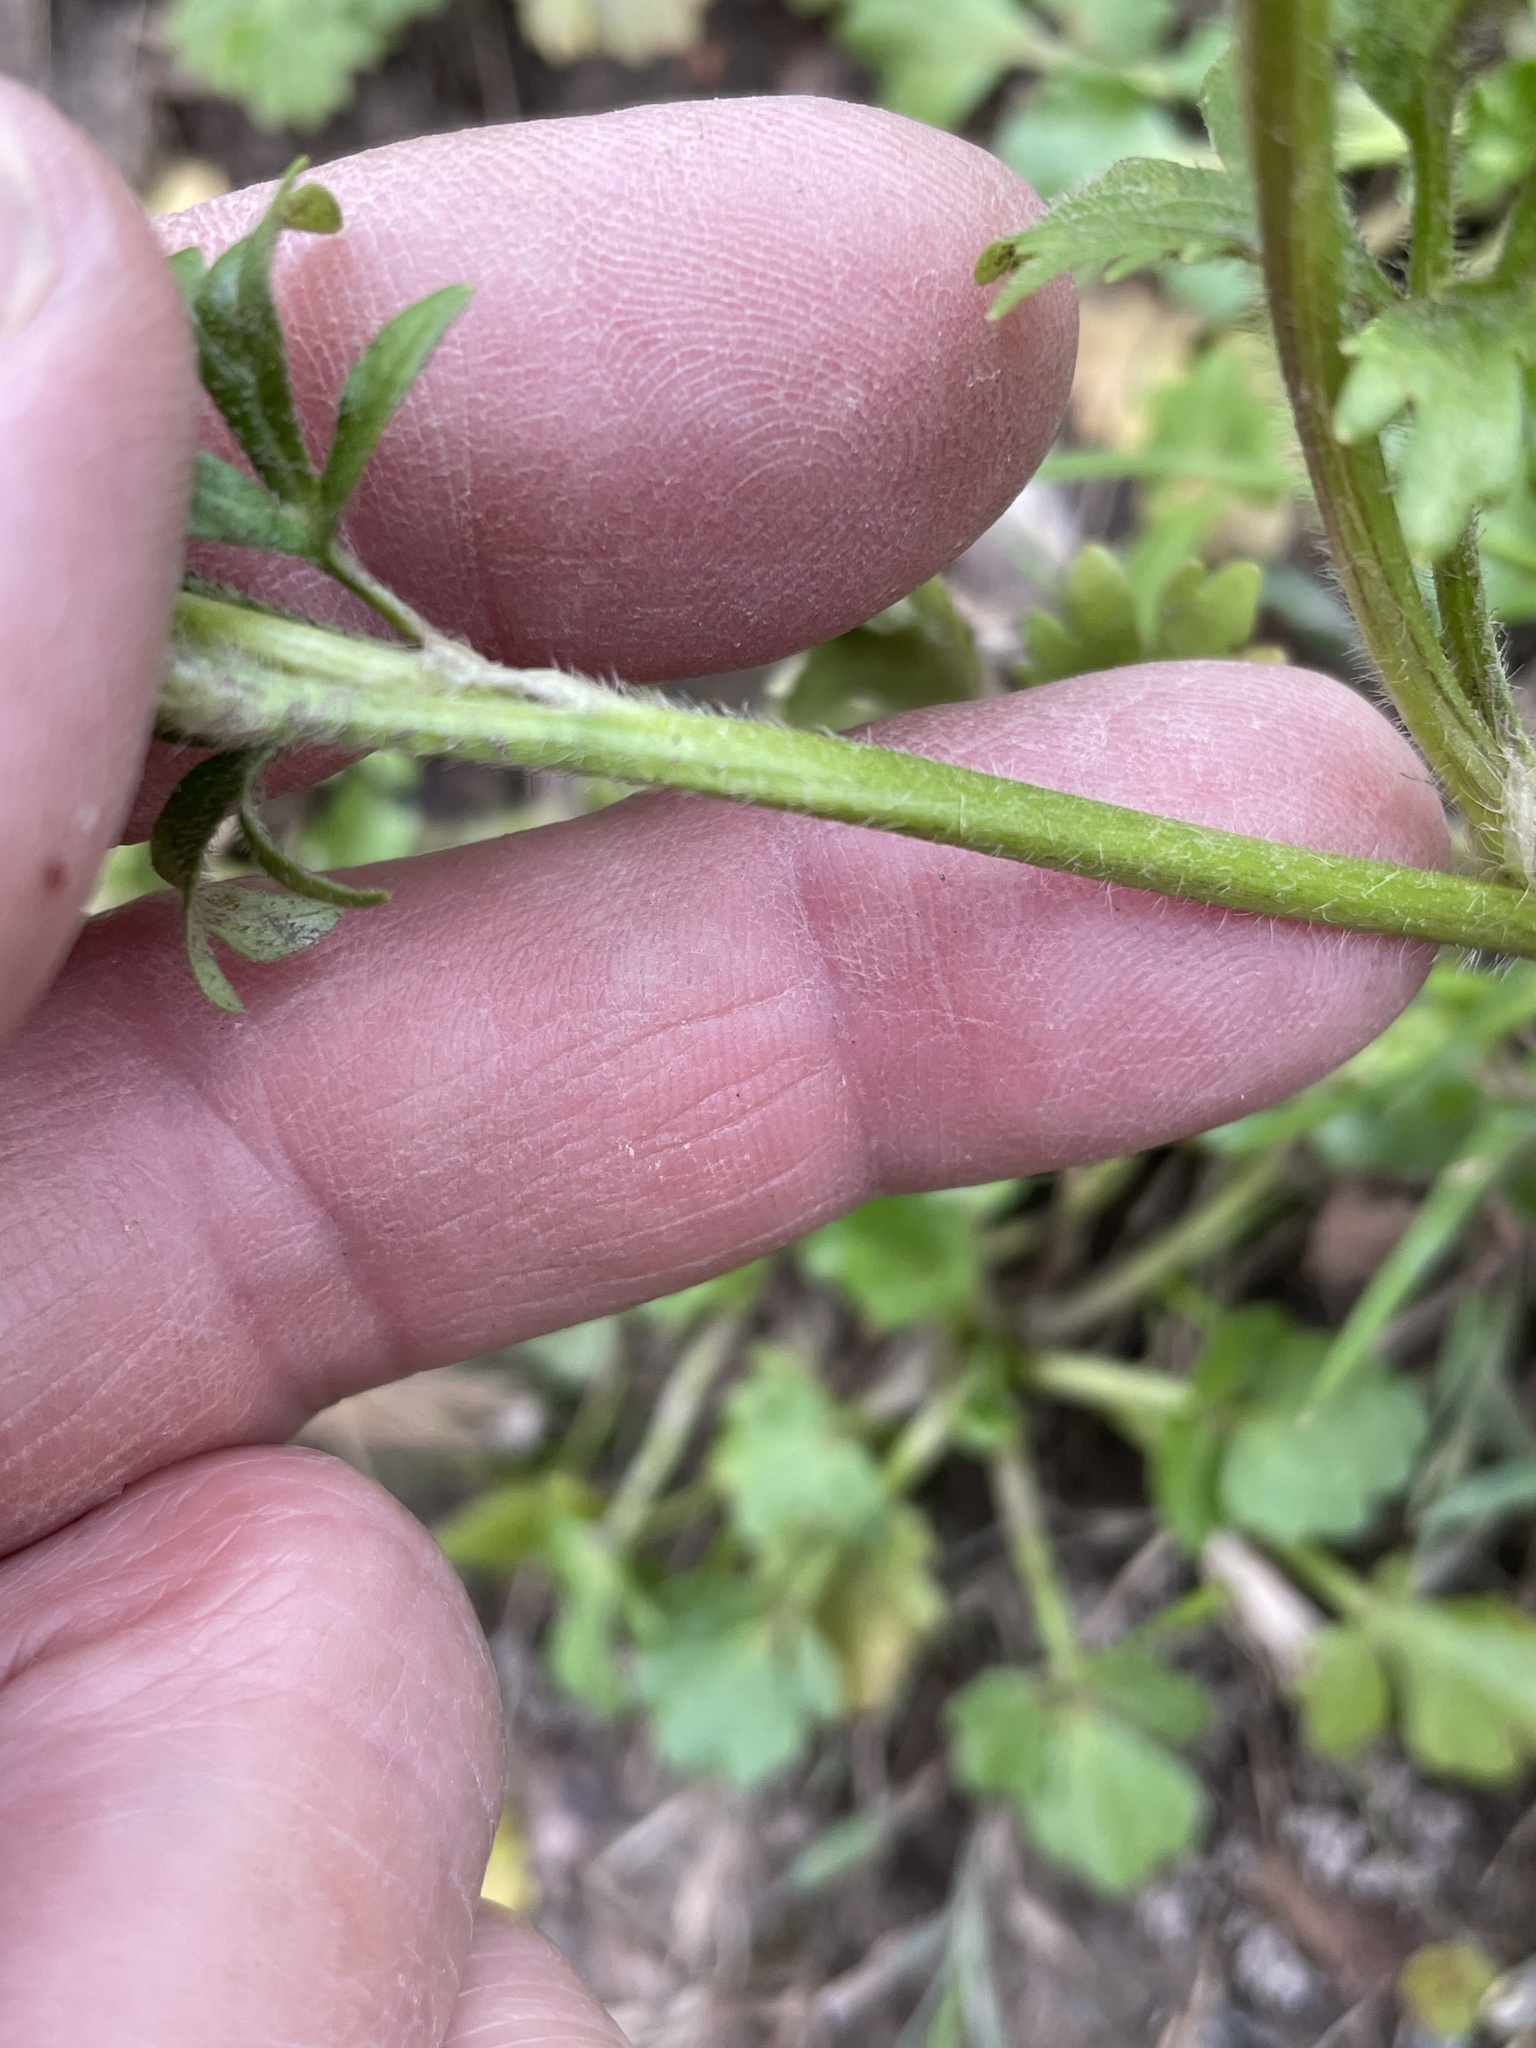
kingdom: Plantae
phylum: Tracheophyta
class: Magnoliopsida
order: Ranunculales
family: Ranunculaceae
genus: Ranunculus
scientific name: Ranunculus sardous
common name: Hairy buttercup
